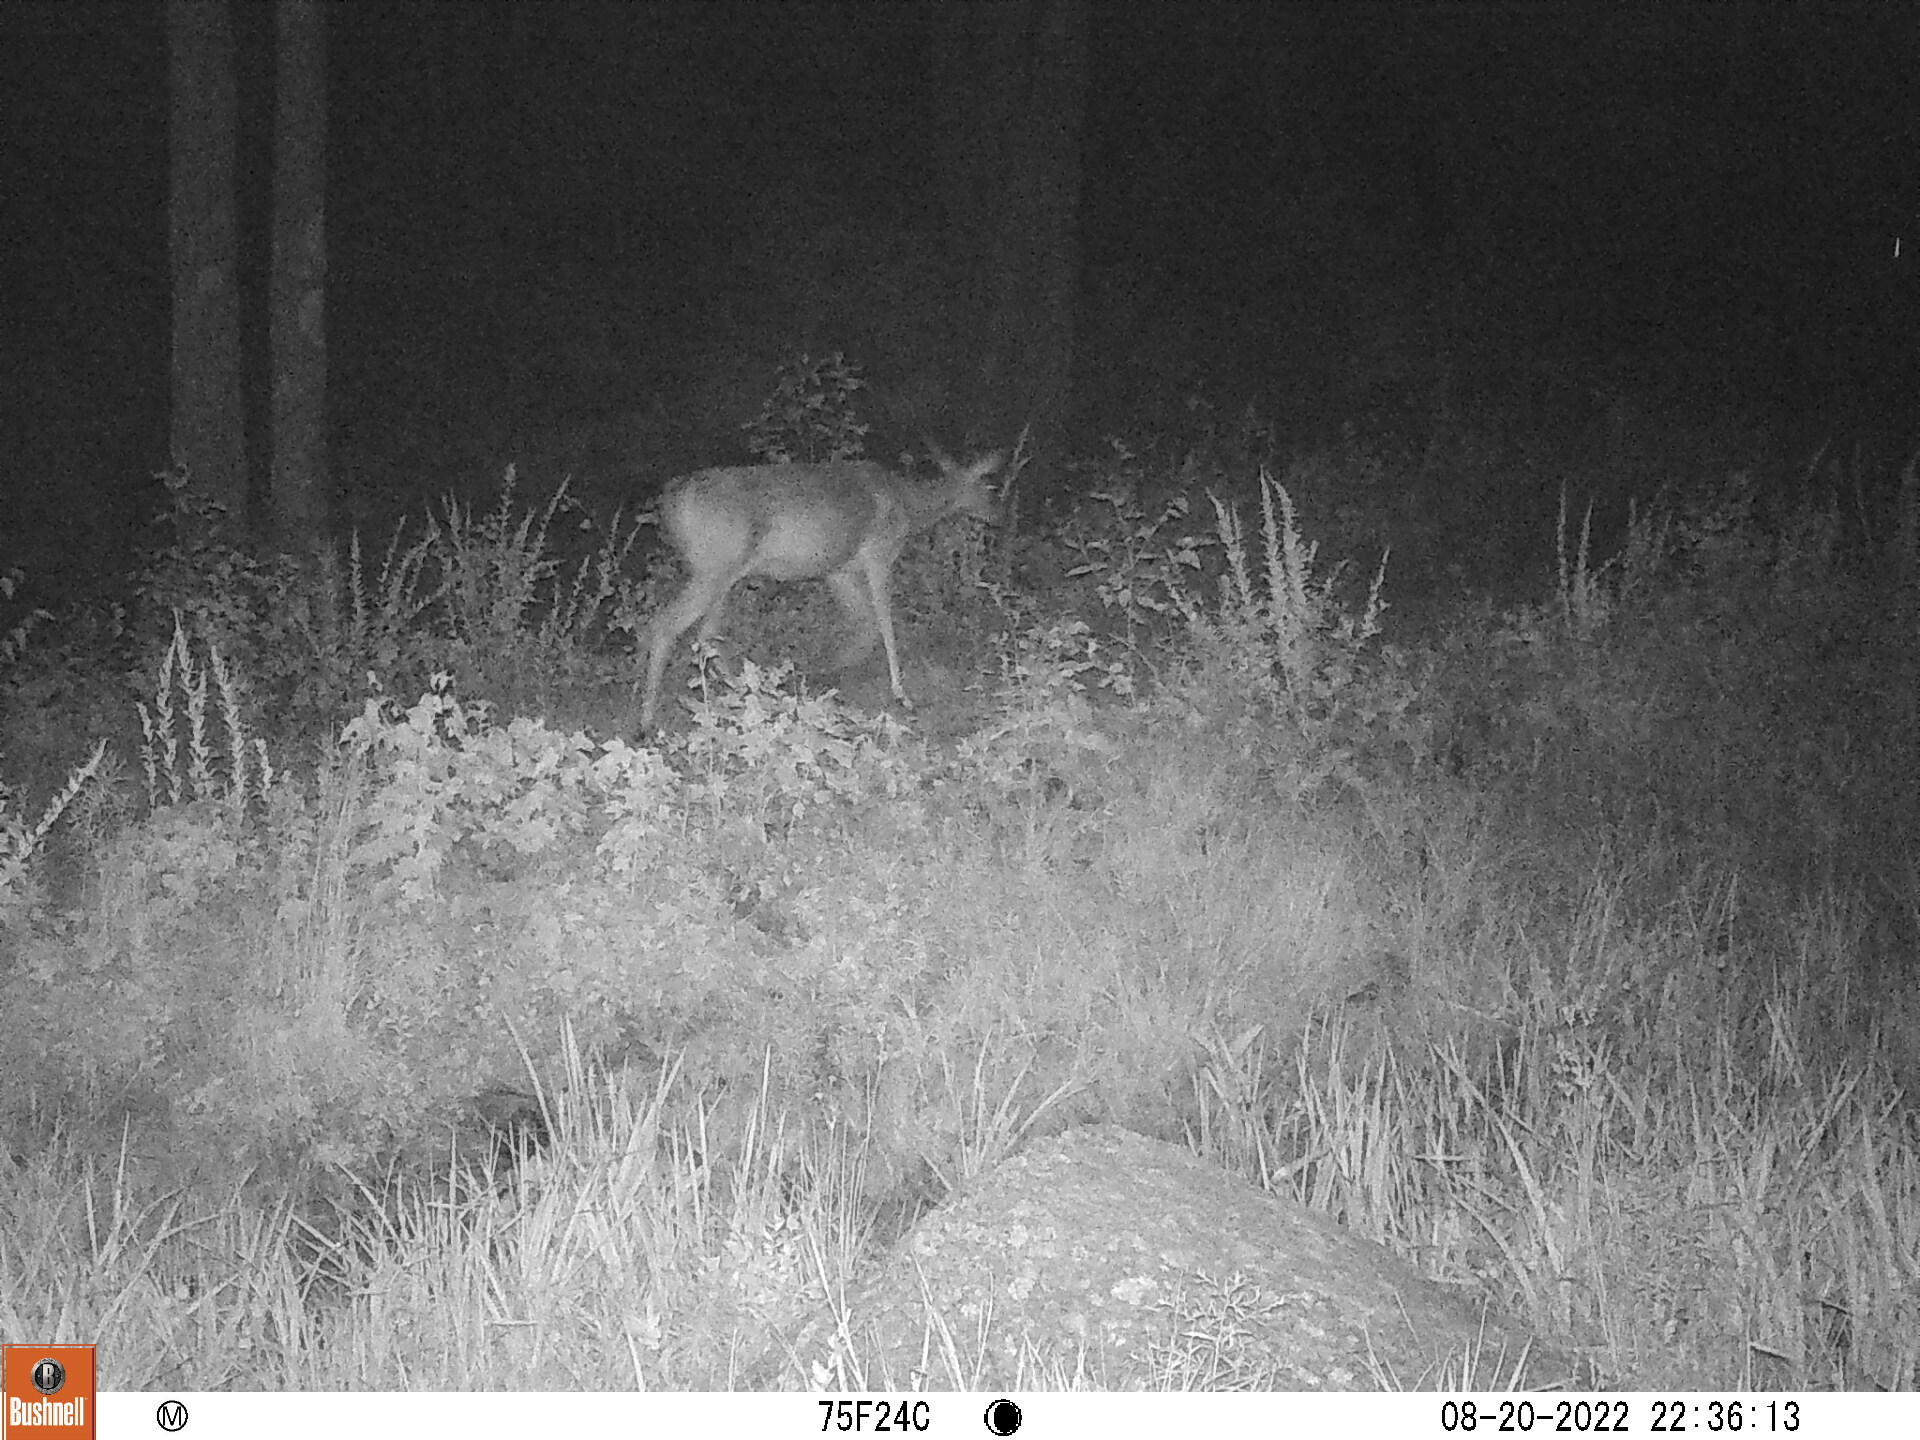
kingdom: Animalia
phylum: Chordata
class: Mammalia
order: Artiodactyla
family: Cervidae
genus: Odocoileus
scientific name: Odocoileus virginianus
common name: White-tailed deer
